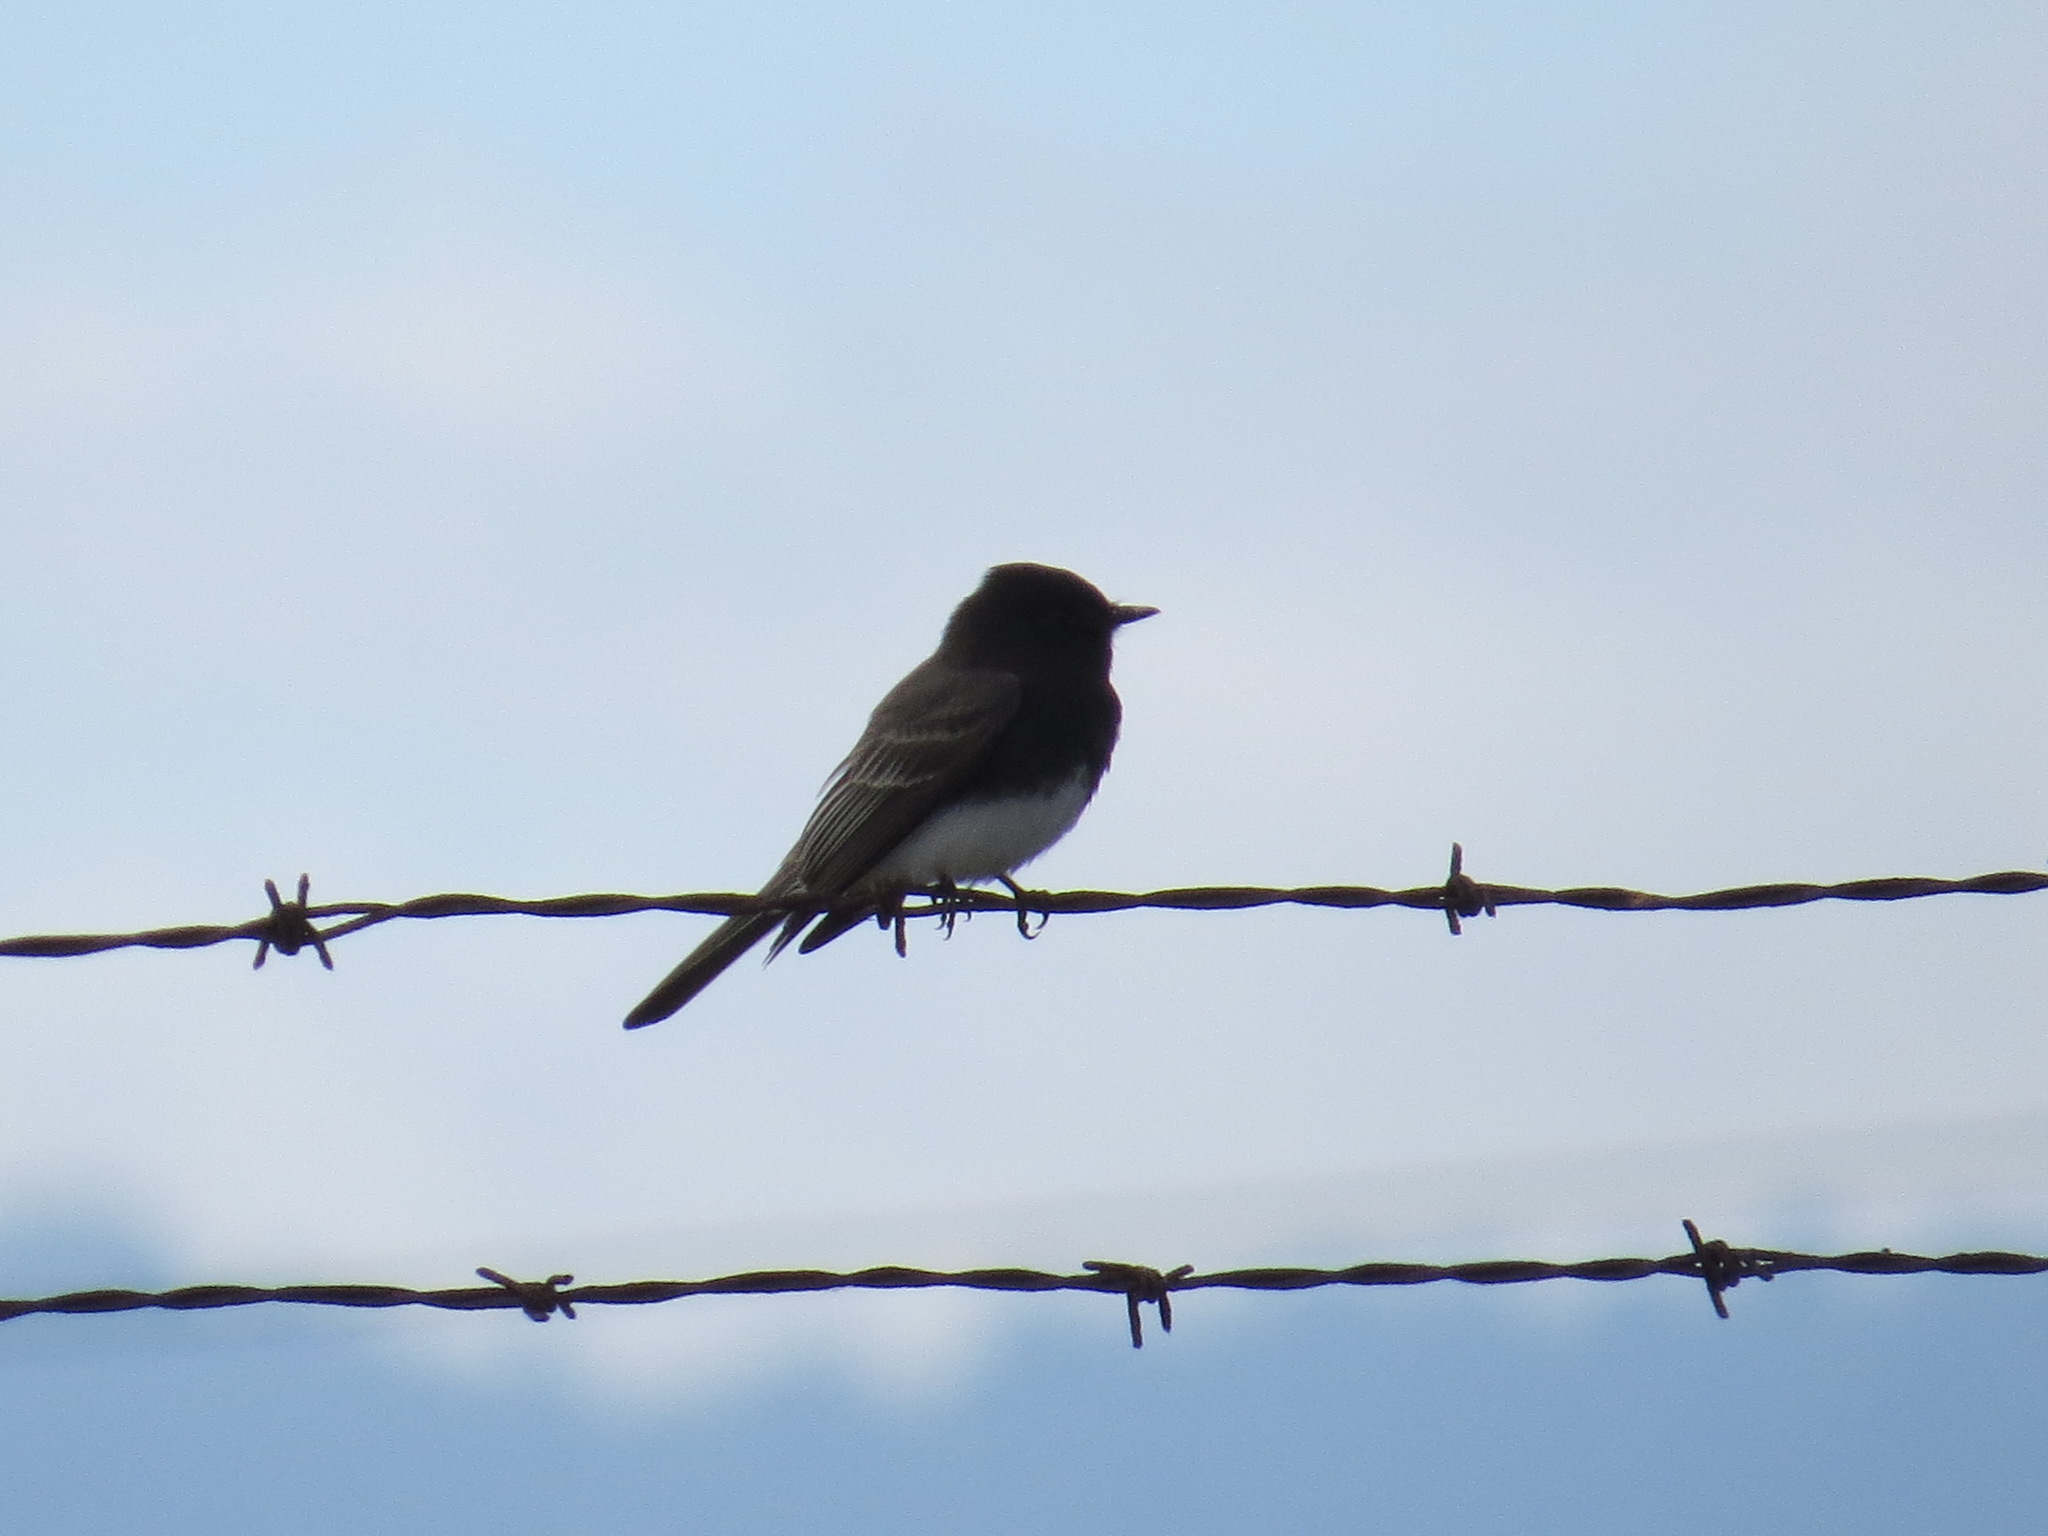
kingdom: Animalia
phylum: Chordata
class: Aves
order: Passeriformes
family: Tyrannidae
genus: Sayornis
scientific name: Sayornis nigricans
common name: Black phoebe
